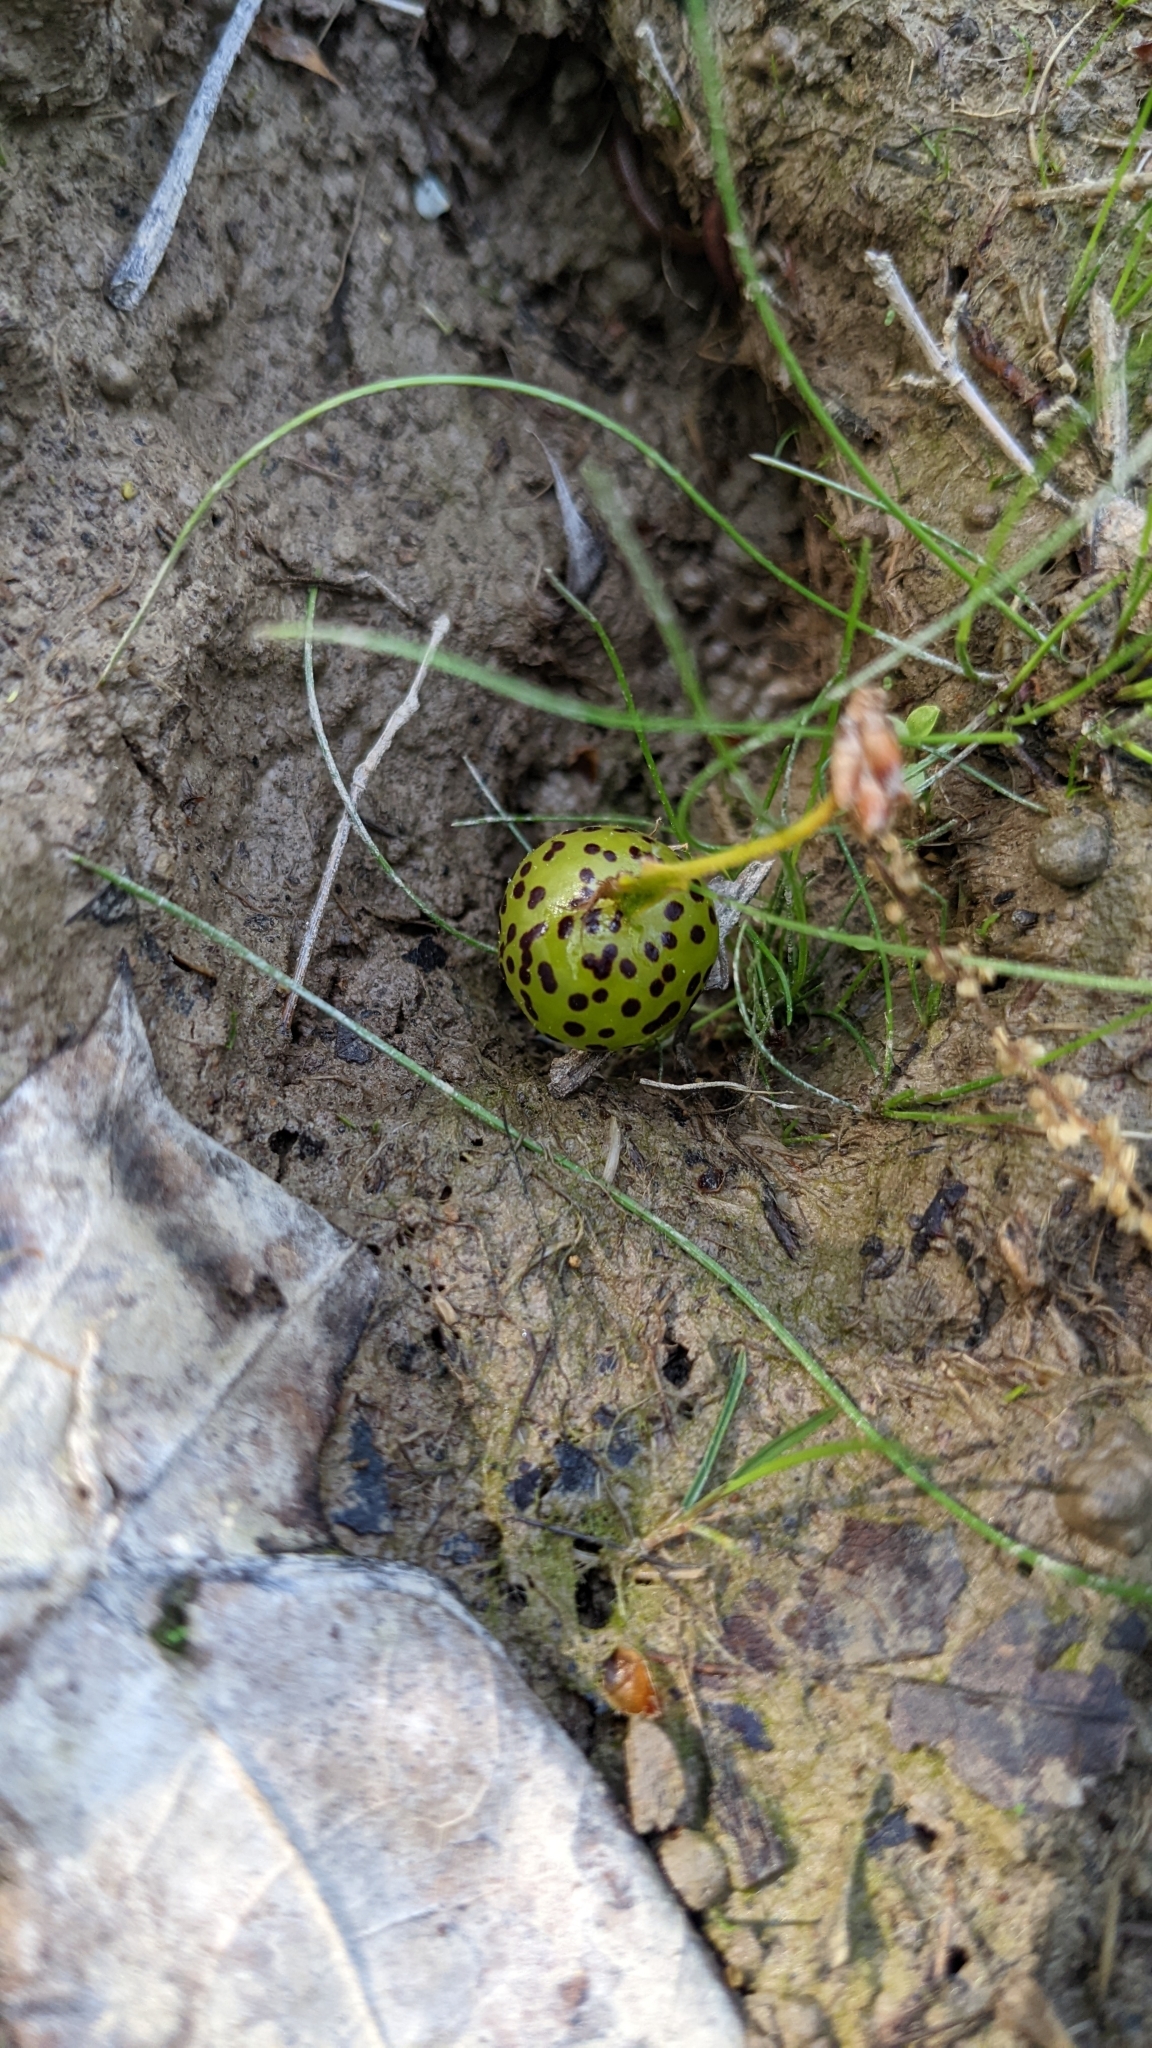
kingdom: Animalia
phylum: Arthropoda
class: Insecta
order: Hymenoptera
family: Cynipidae
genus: Amphibolips
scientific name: Amphibolips
